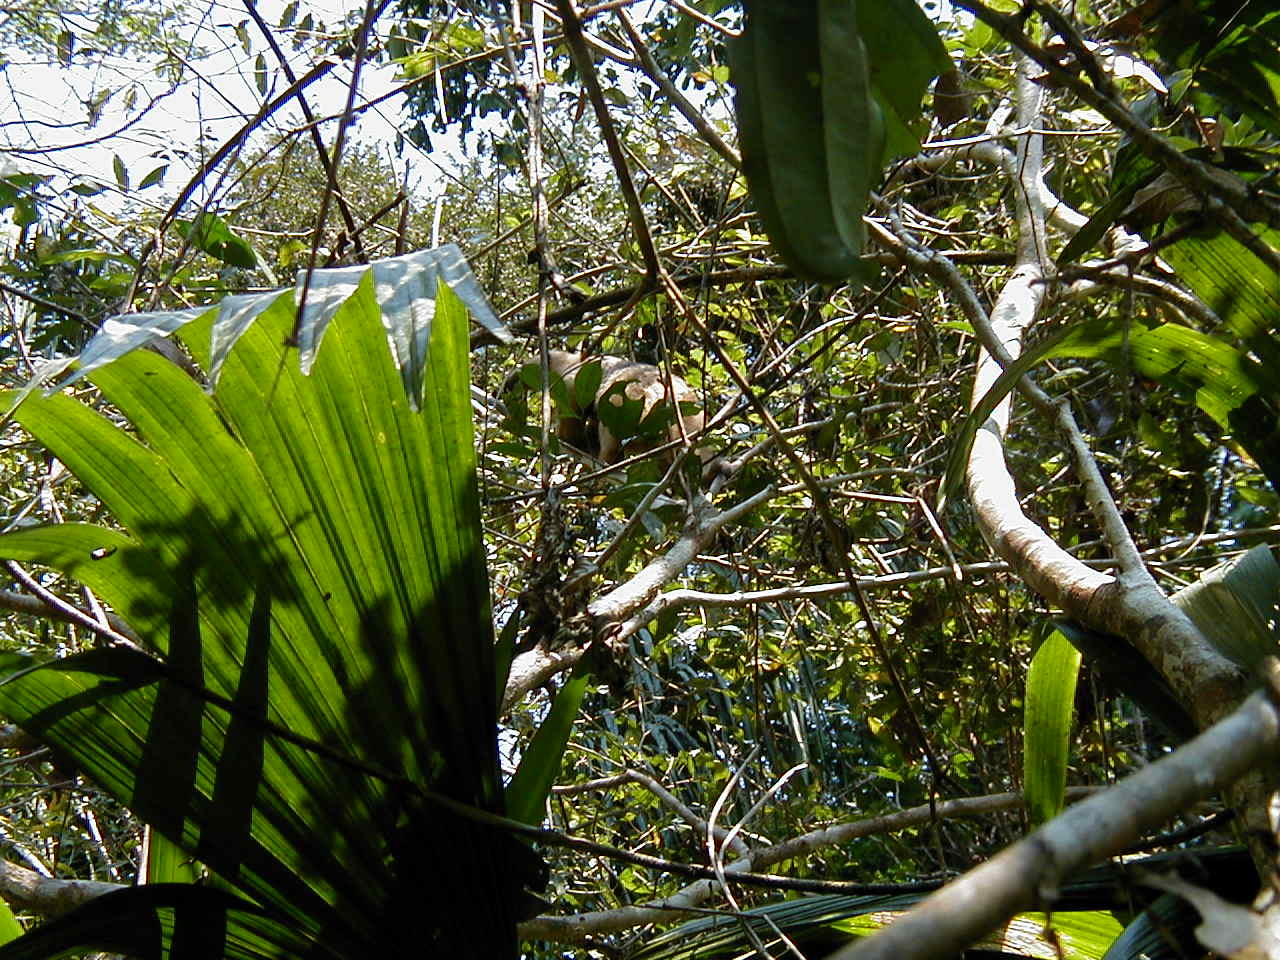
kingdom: Animalia
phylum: Chordata
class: Mammalia
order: Pilosa
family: Myrmecophagidae
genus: Tamandua
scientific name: Tamandua tetradactyla
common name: Southern tamandua
